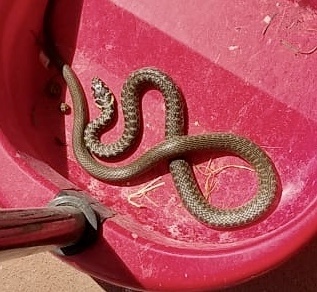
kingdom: Animalia
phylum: Chordata
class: Squamata
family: Colubridae
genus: Hierophis
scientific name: Hierophis viridiflavus
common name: Green whip snake
